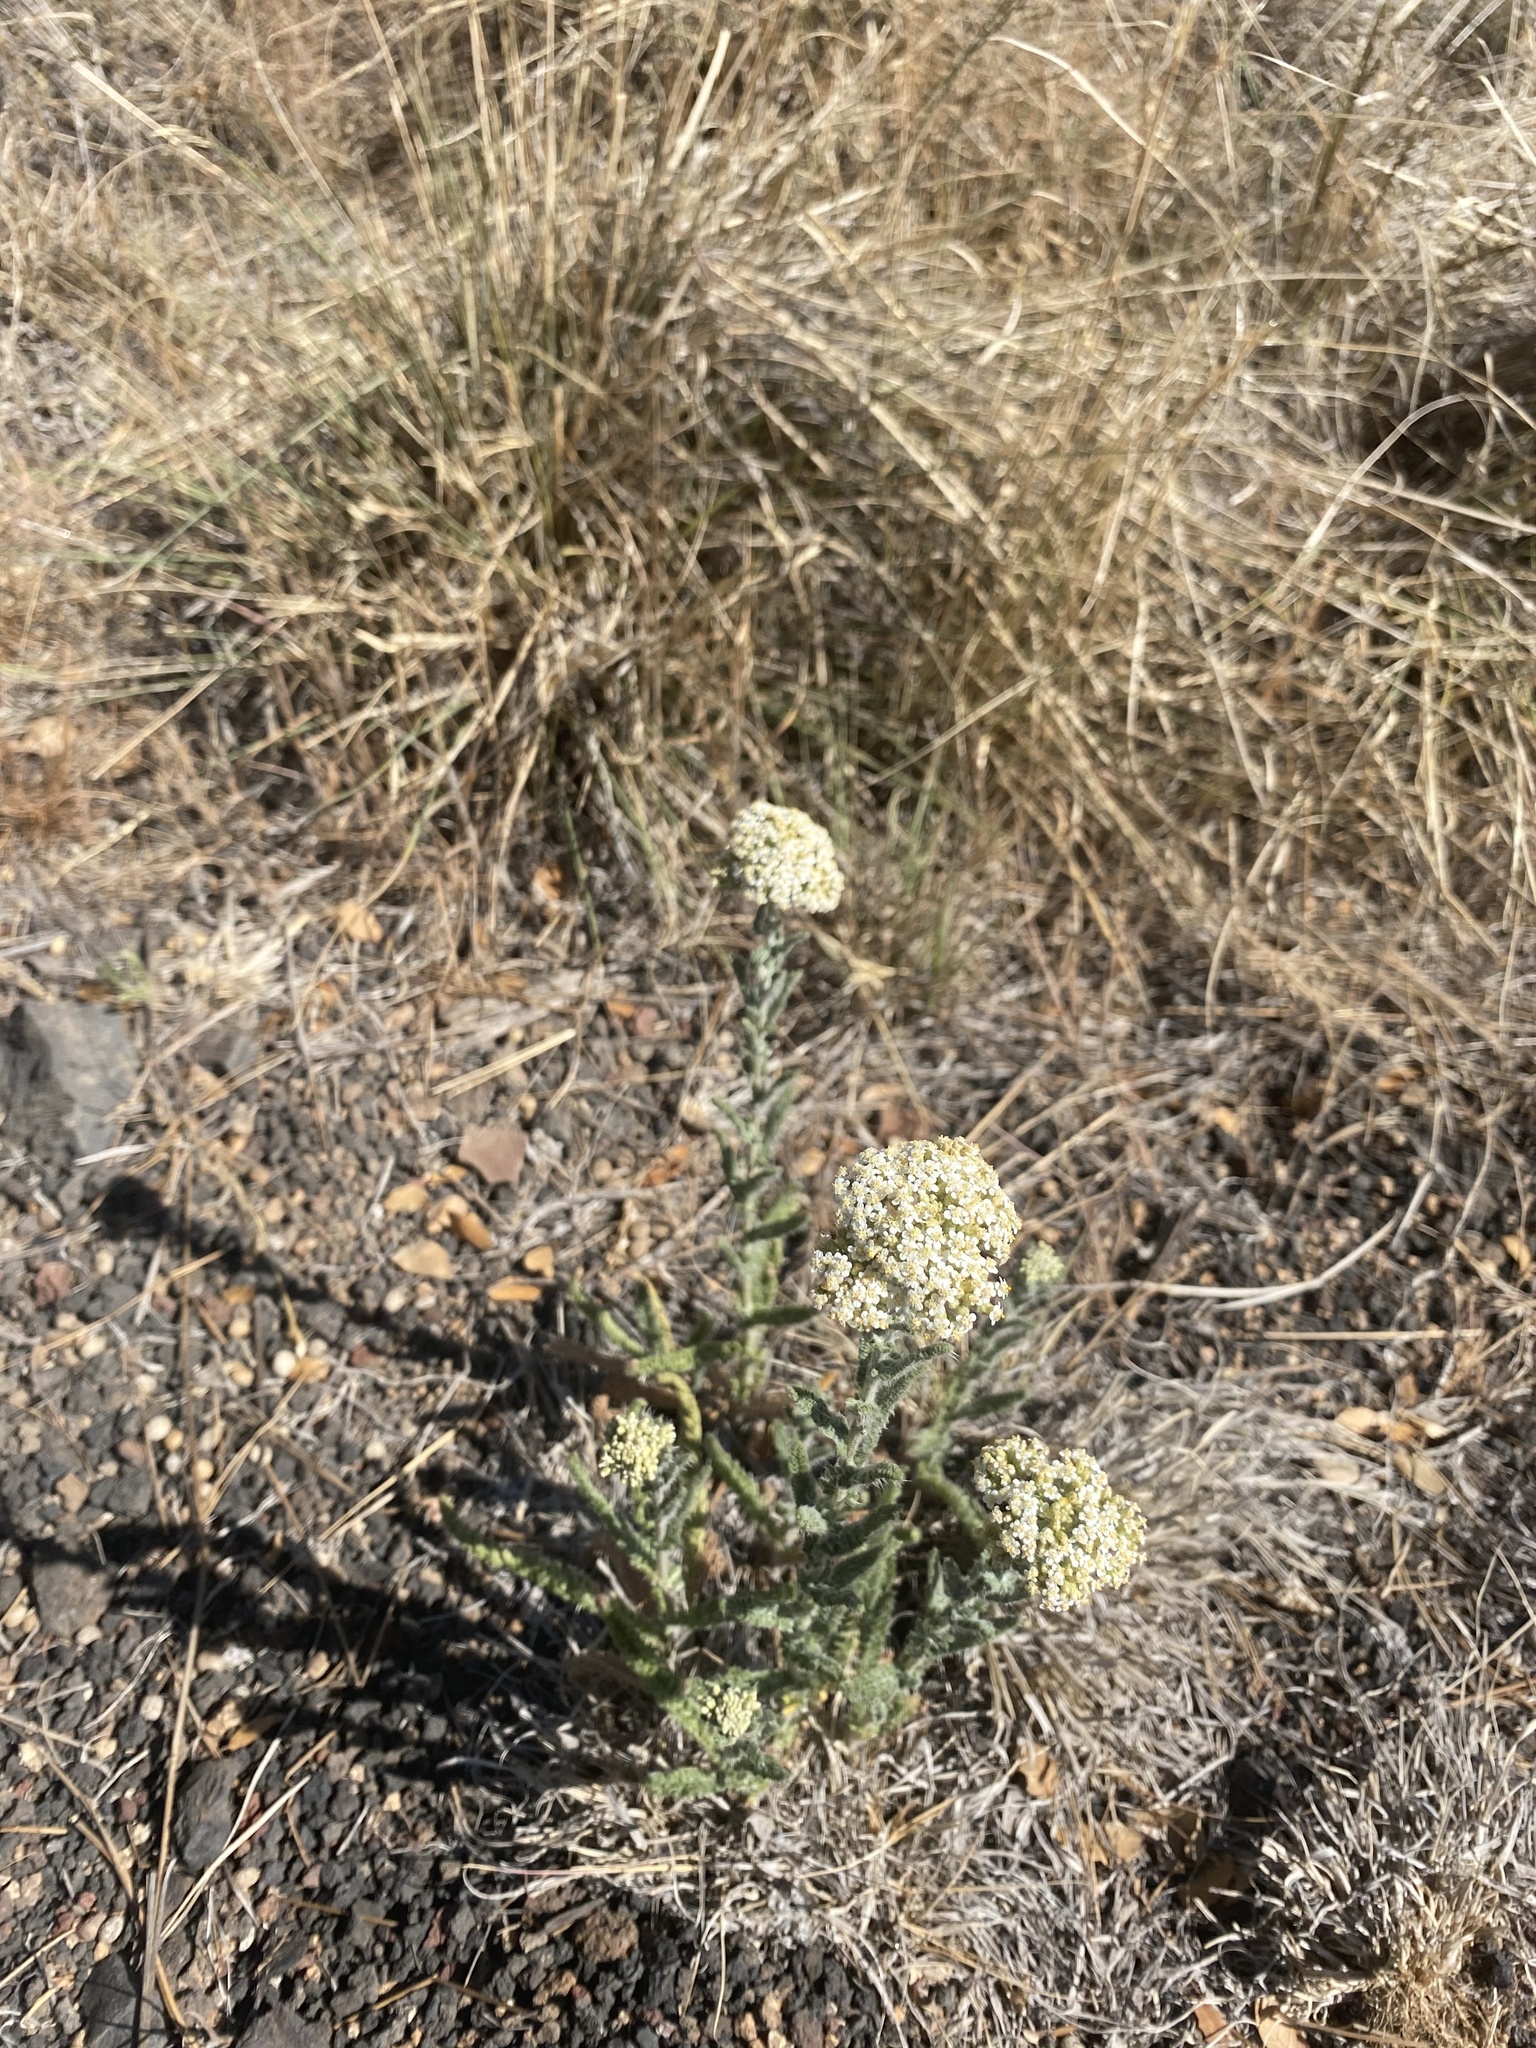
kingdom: Plantae
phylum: Tracheophyta
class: Magnoliopsida
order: Asterales
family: Asteraceae
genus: Achillea
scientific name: Achillea millefolium
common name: Yarrow
